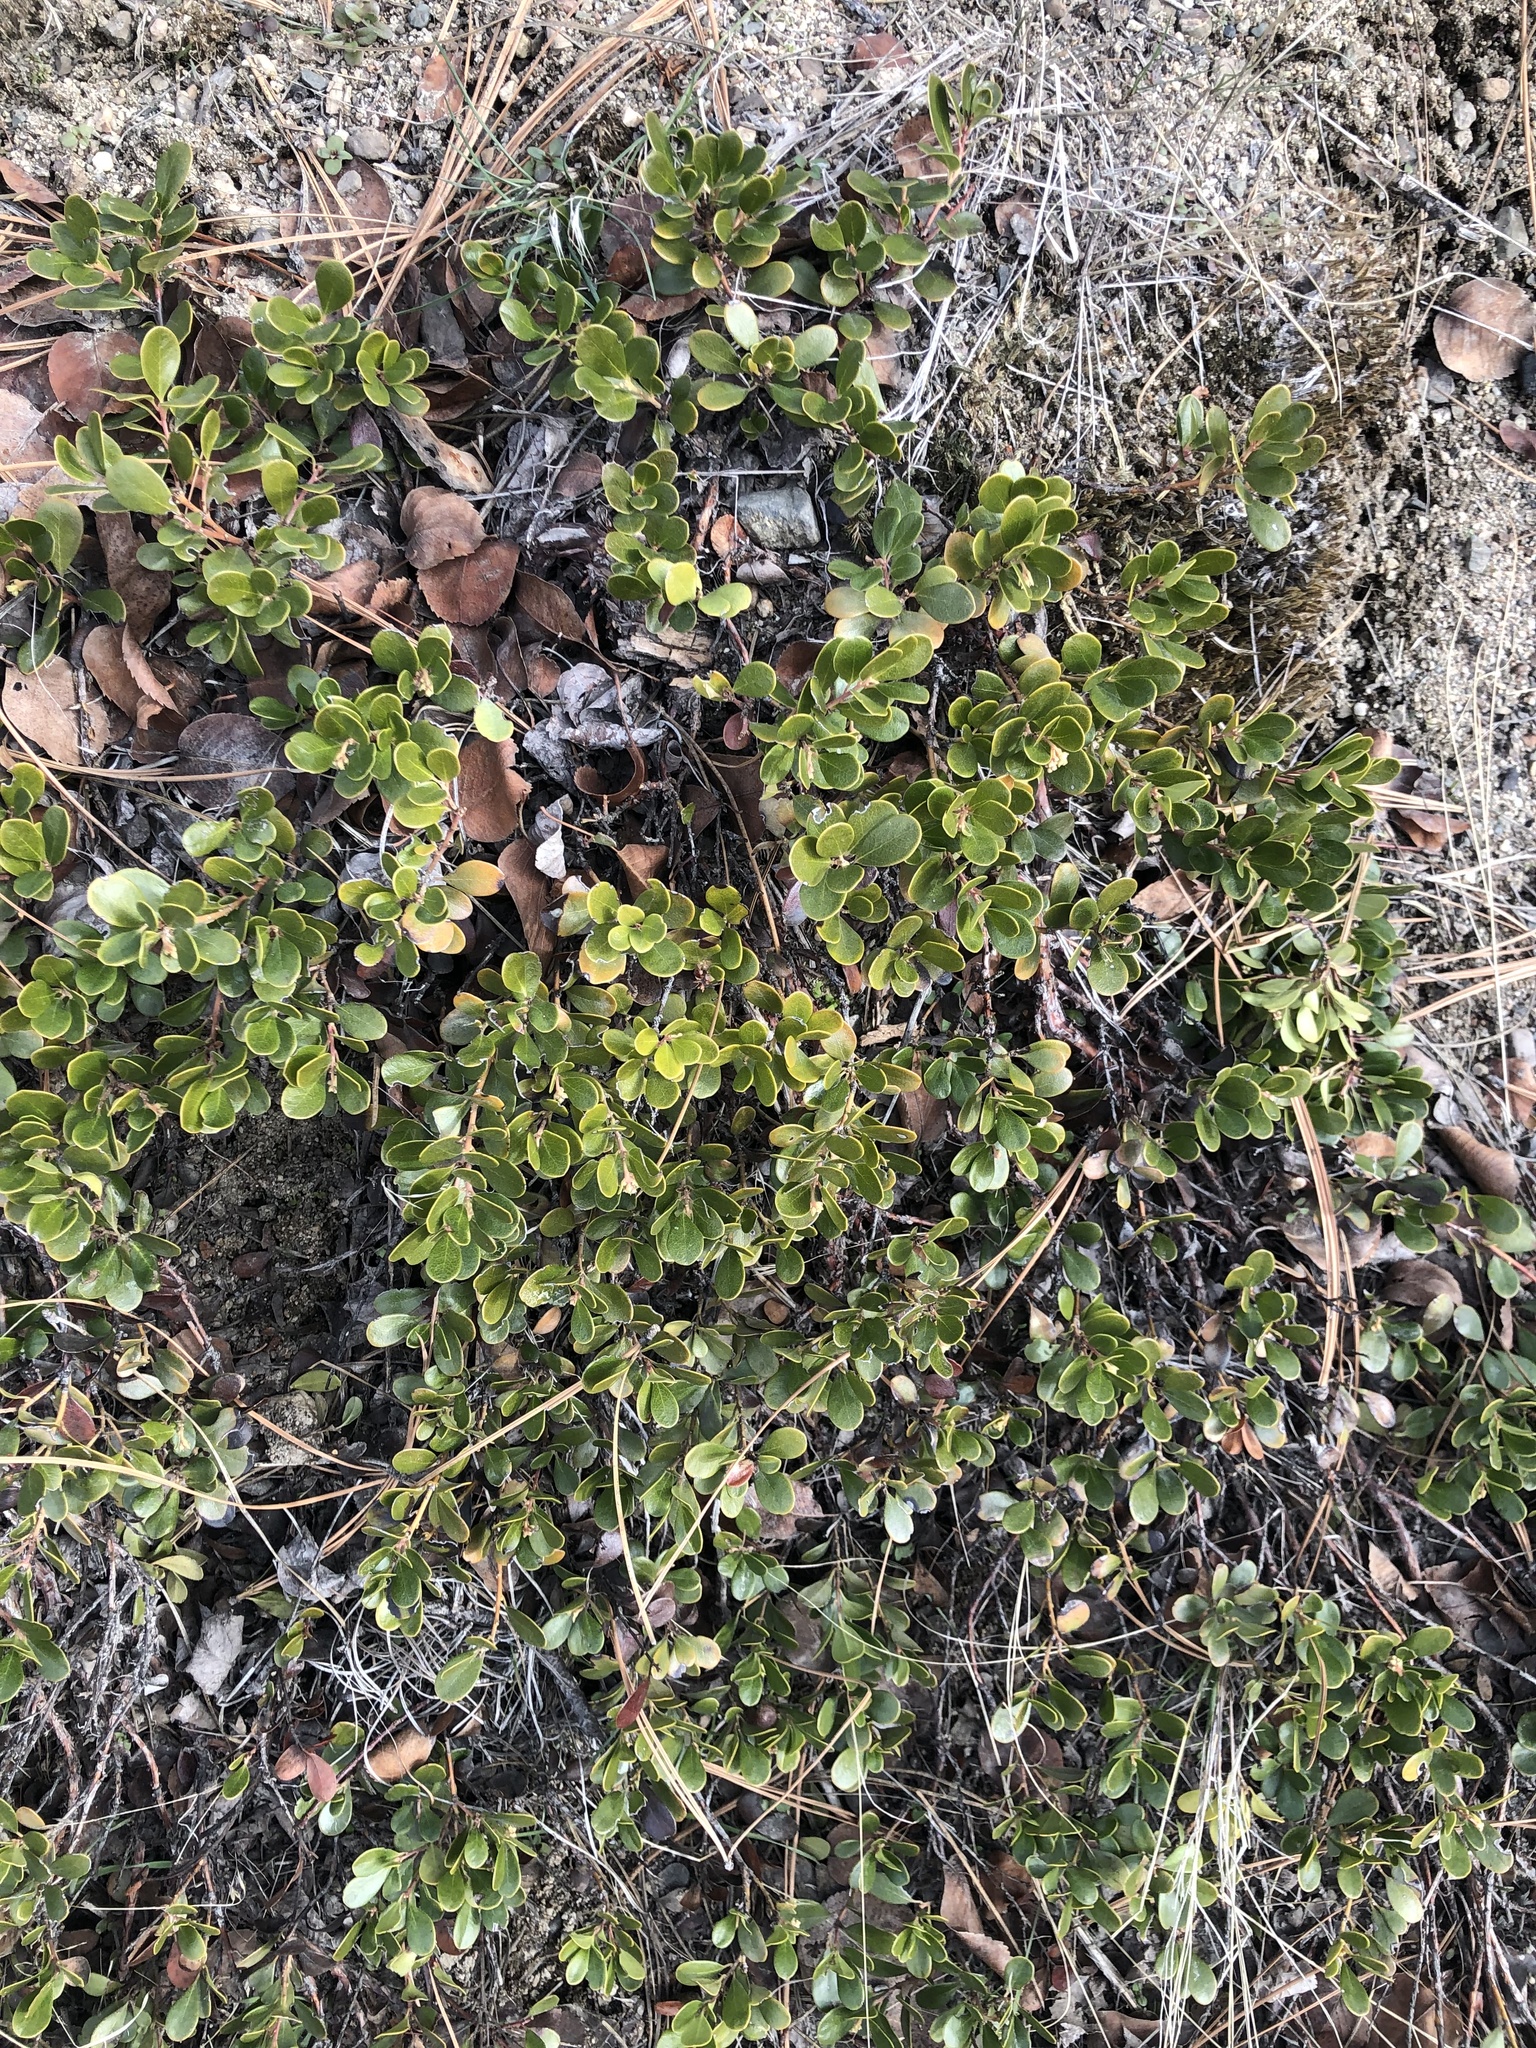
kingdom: Plantae
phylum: Tracheophyta
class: Magnoliopsida
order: Ericales
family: Ericaceae
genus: Arctostaphylos
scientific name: Arctostaphylos uva-ursi
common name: Bearberry
